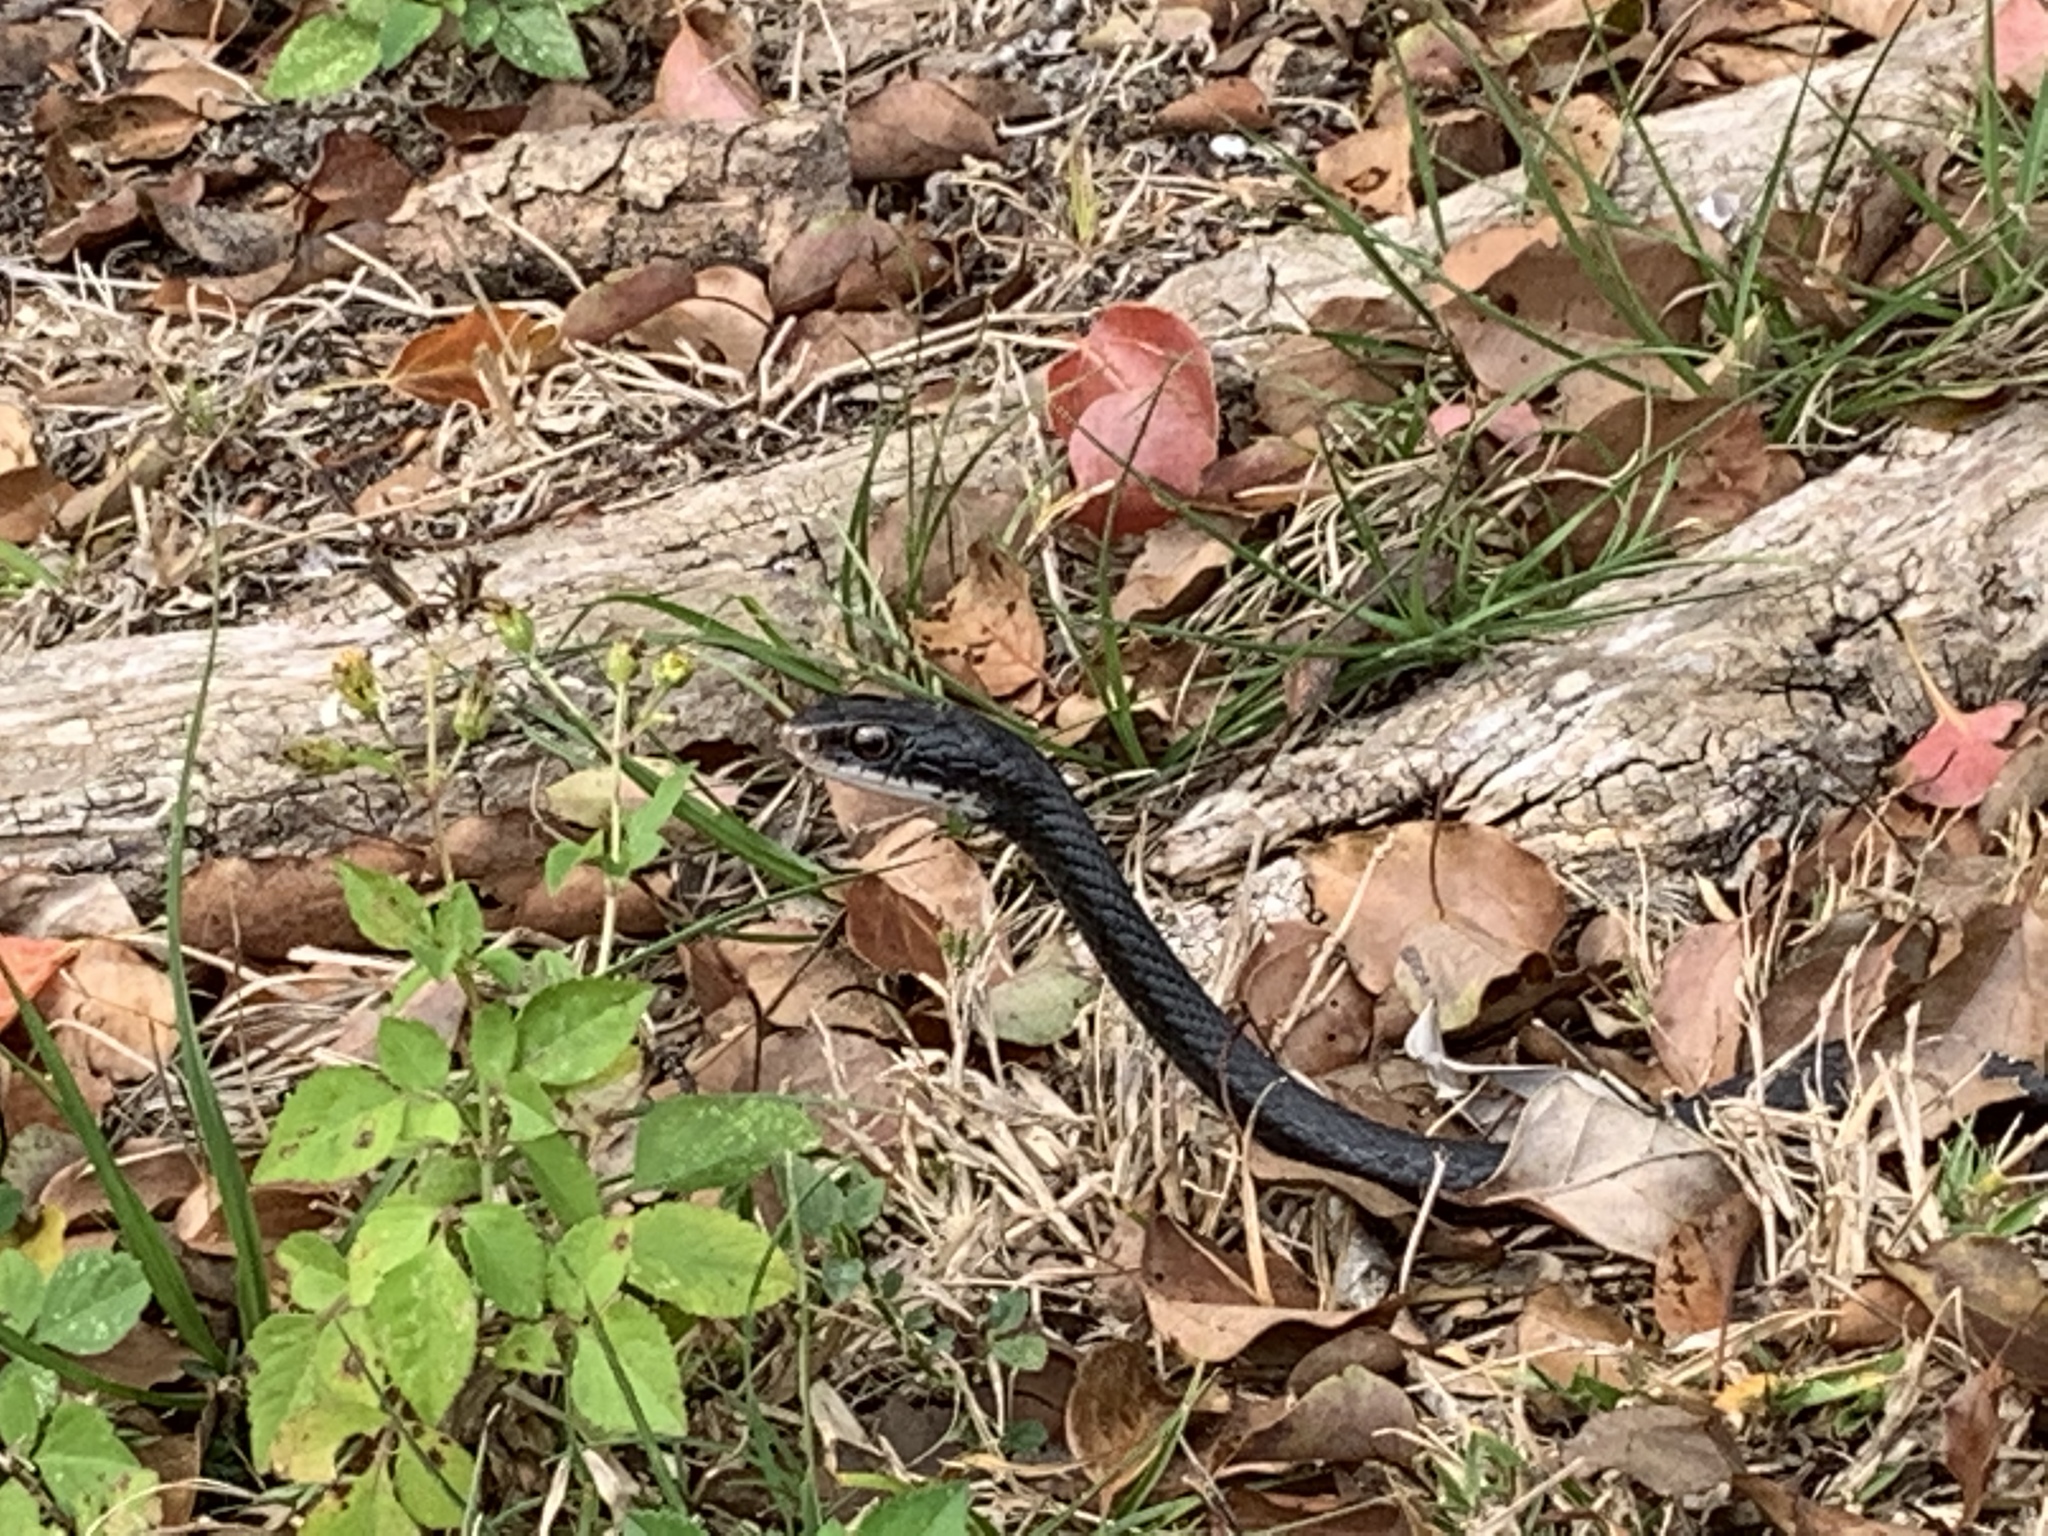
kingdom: Animalia
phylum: Chordata
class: Squamata
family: Colubridae
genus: Coluber
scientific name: Coluber constrictor
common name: Eastern racer
